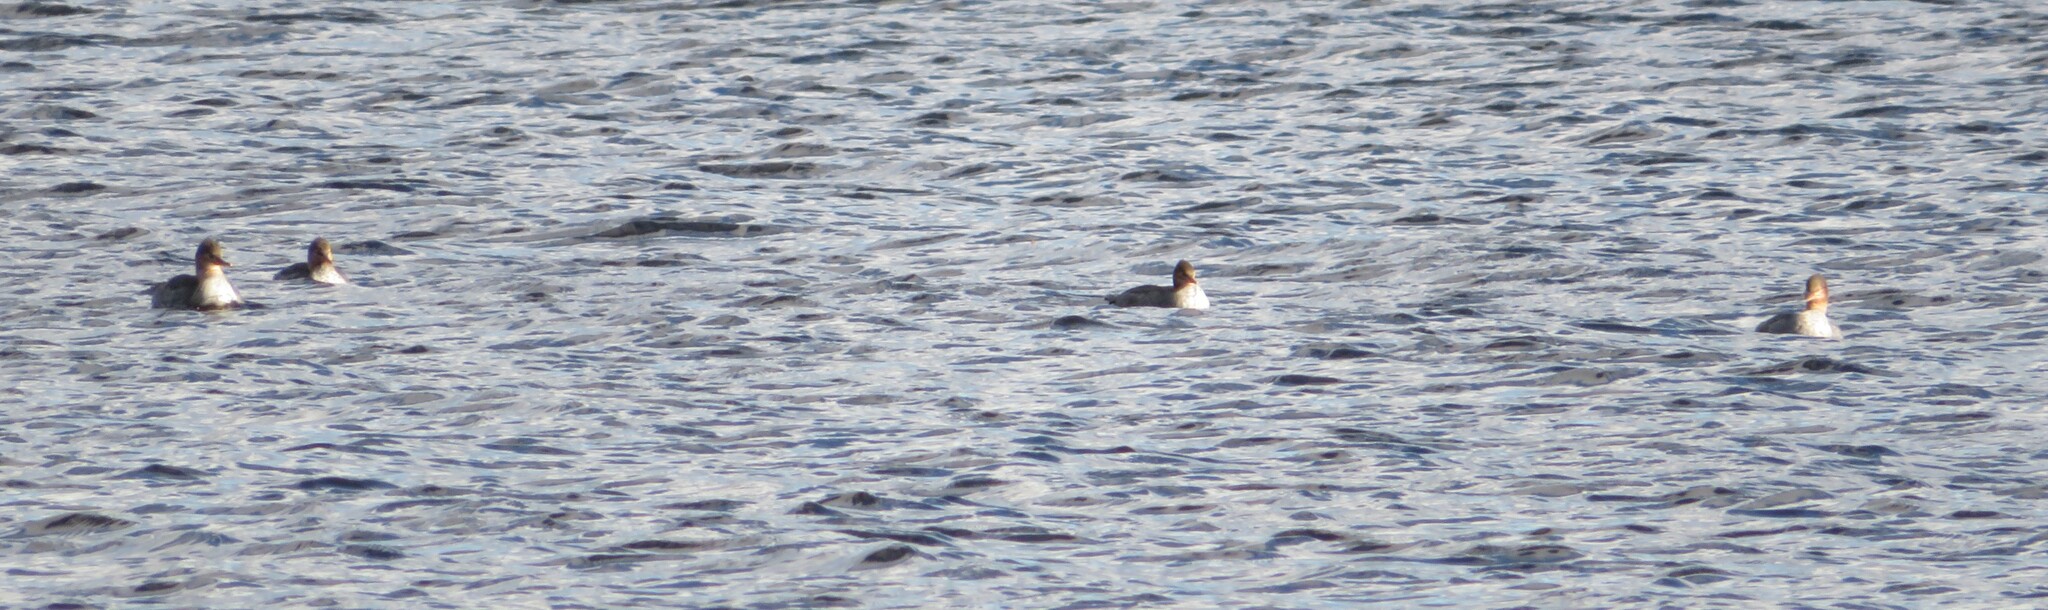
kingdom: Animalia
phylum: Chordata
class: Aves
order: Anseriformes
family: Anatidae
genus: Mergus
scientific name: Mergus serrator
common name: Red-breasted merganser
